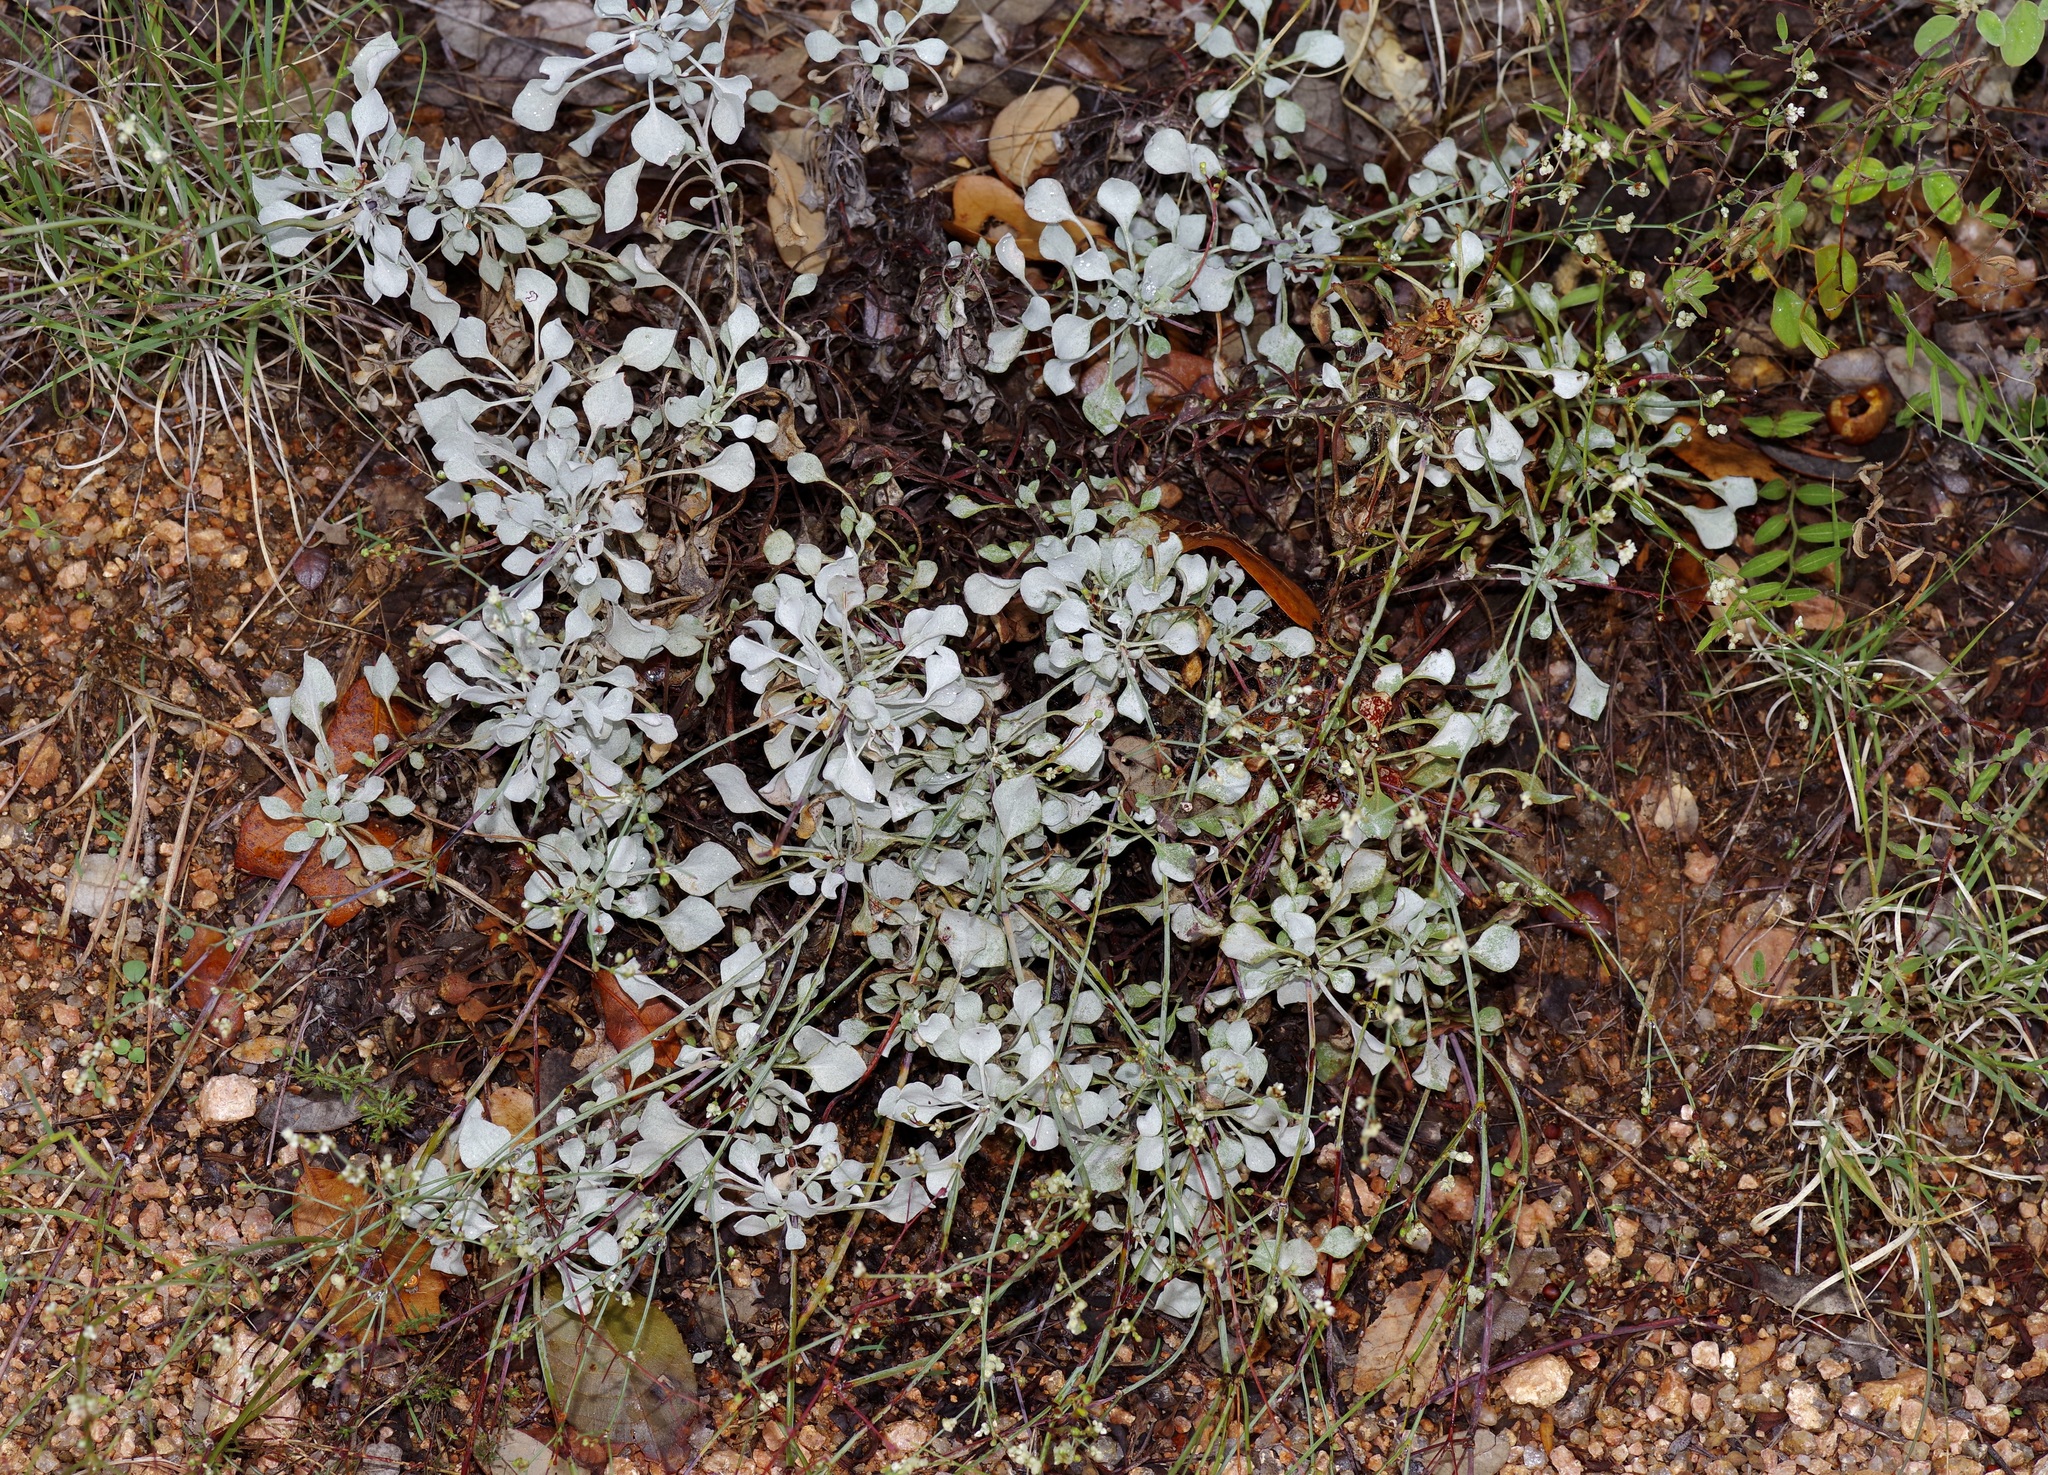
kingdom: Plantae
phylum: Tracheophyta
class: Magnoliopsida
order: Caryophyllales
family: Polygonaceae
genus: Eriogonum
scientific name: Eriogonum graniticum
